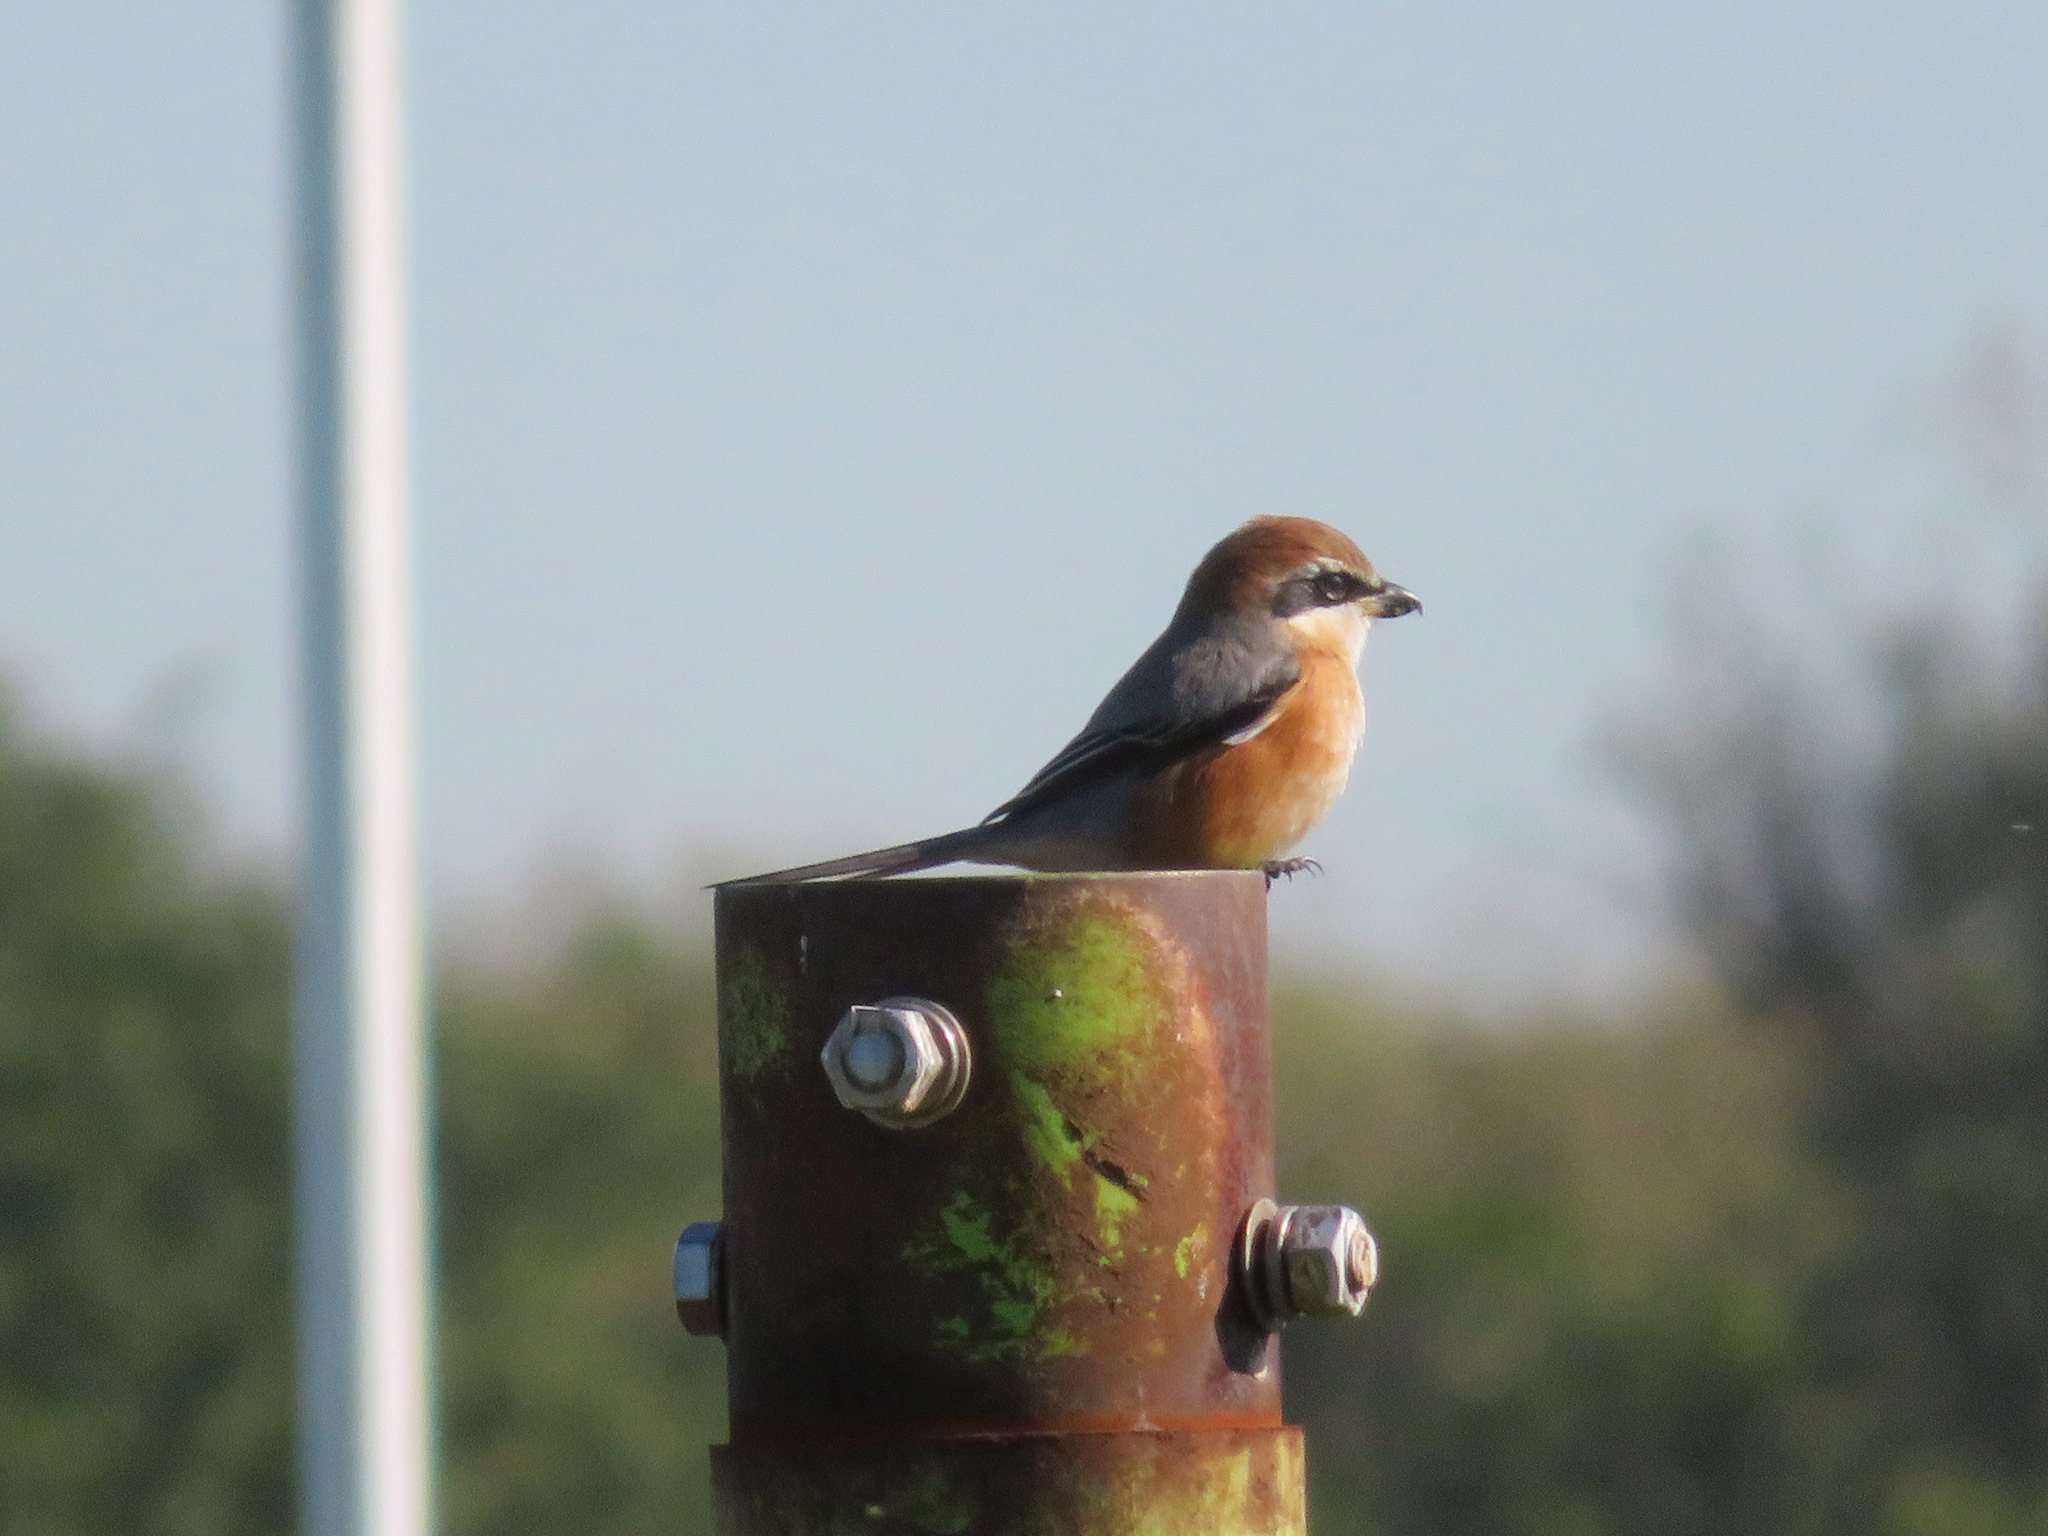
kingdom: Animalia
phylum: Chordata
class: Aves
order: Passeriformes
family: Laniidae
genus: Lanius
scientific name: Lanius bucephalus
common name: Bull-headed shrike
